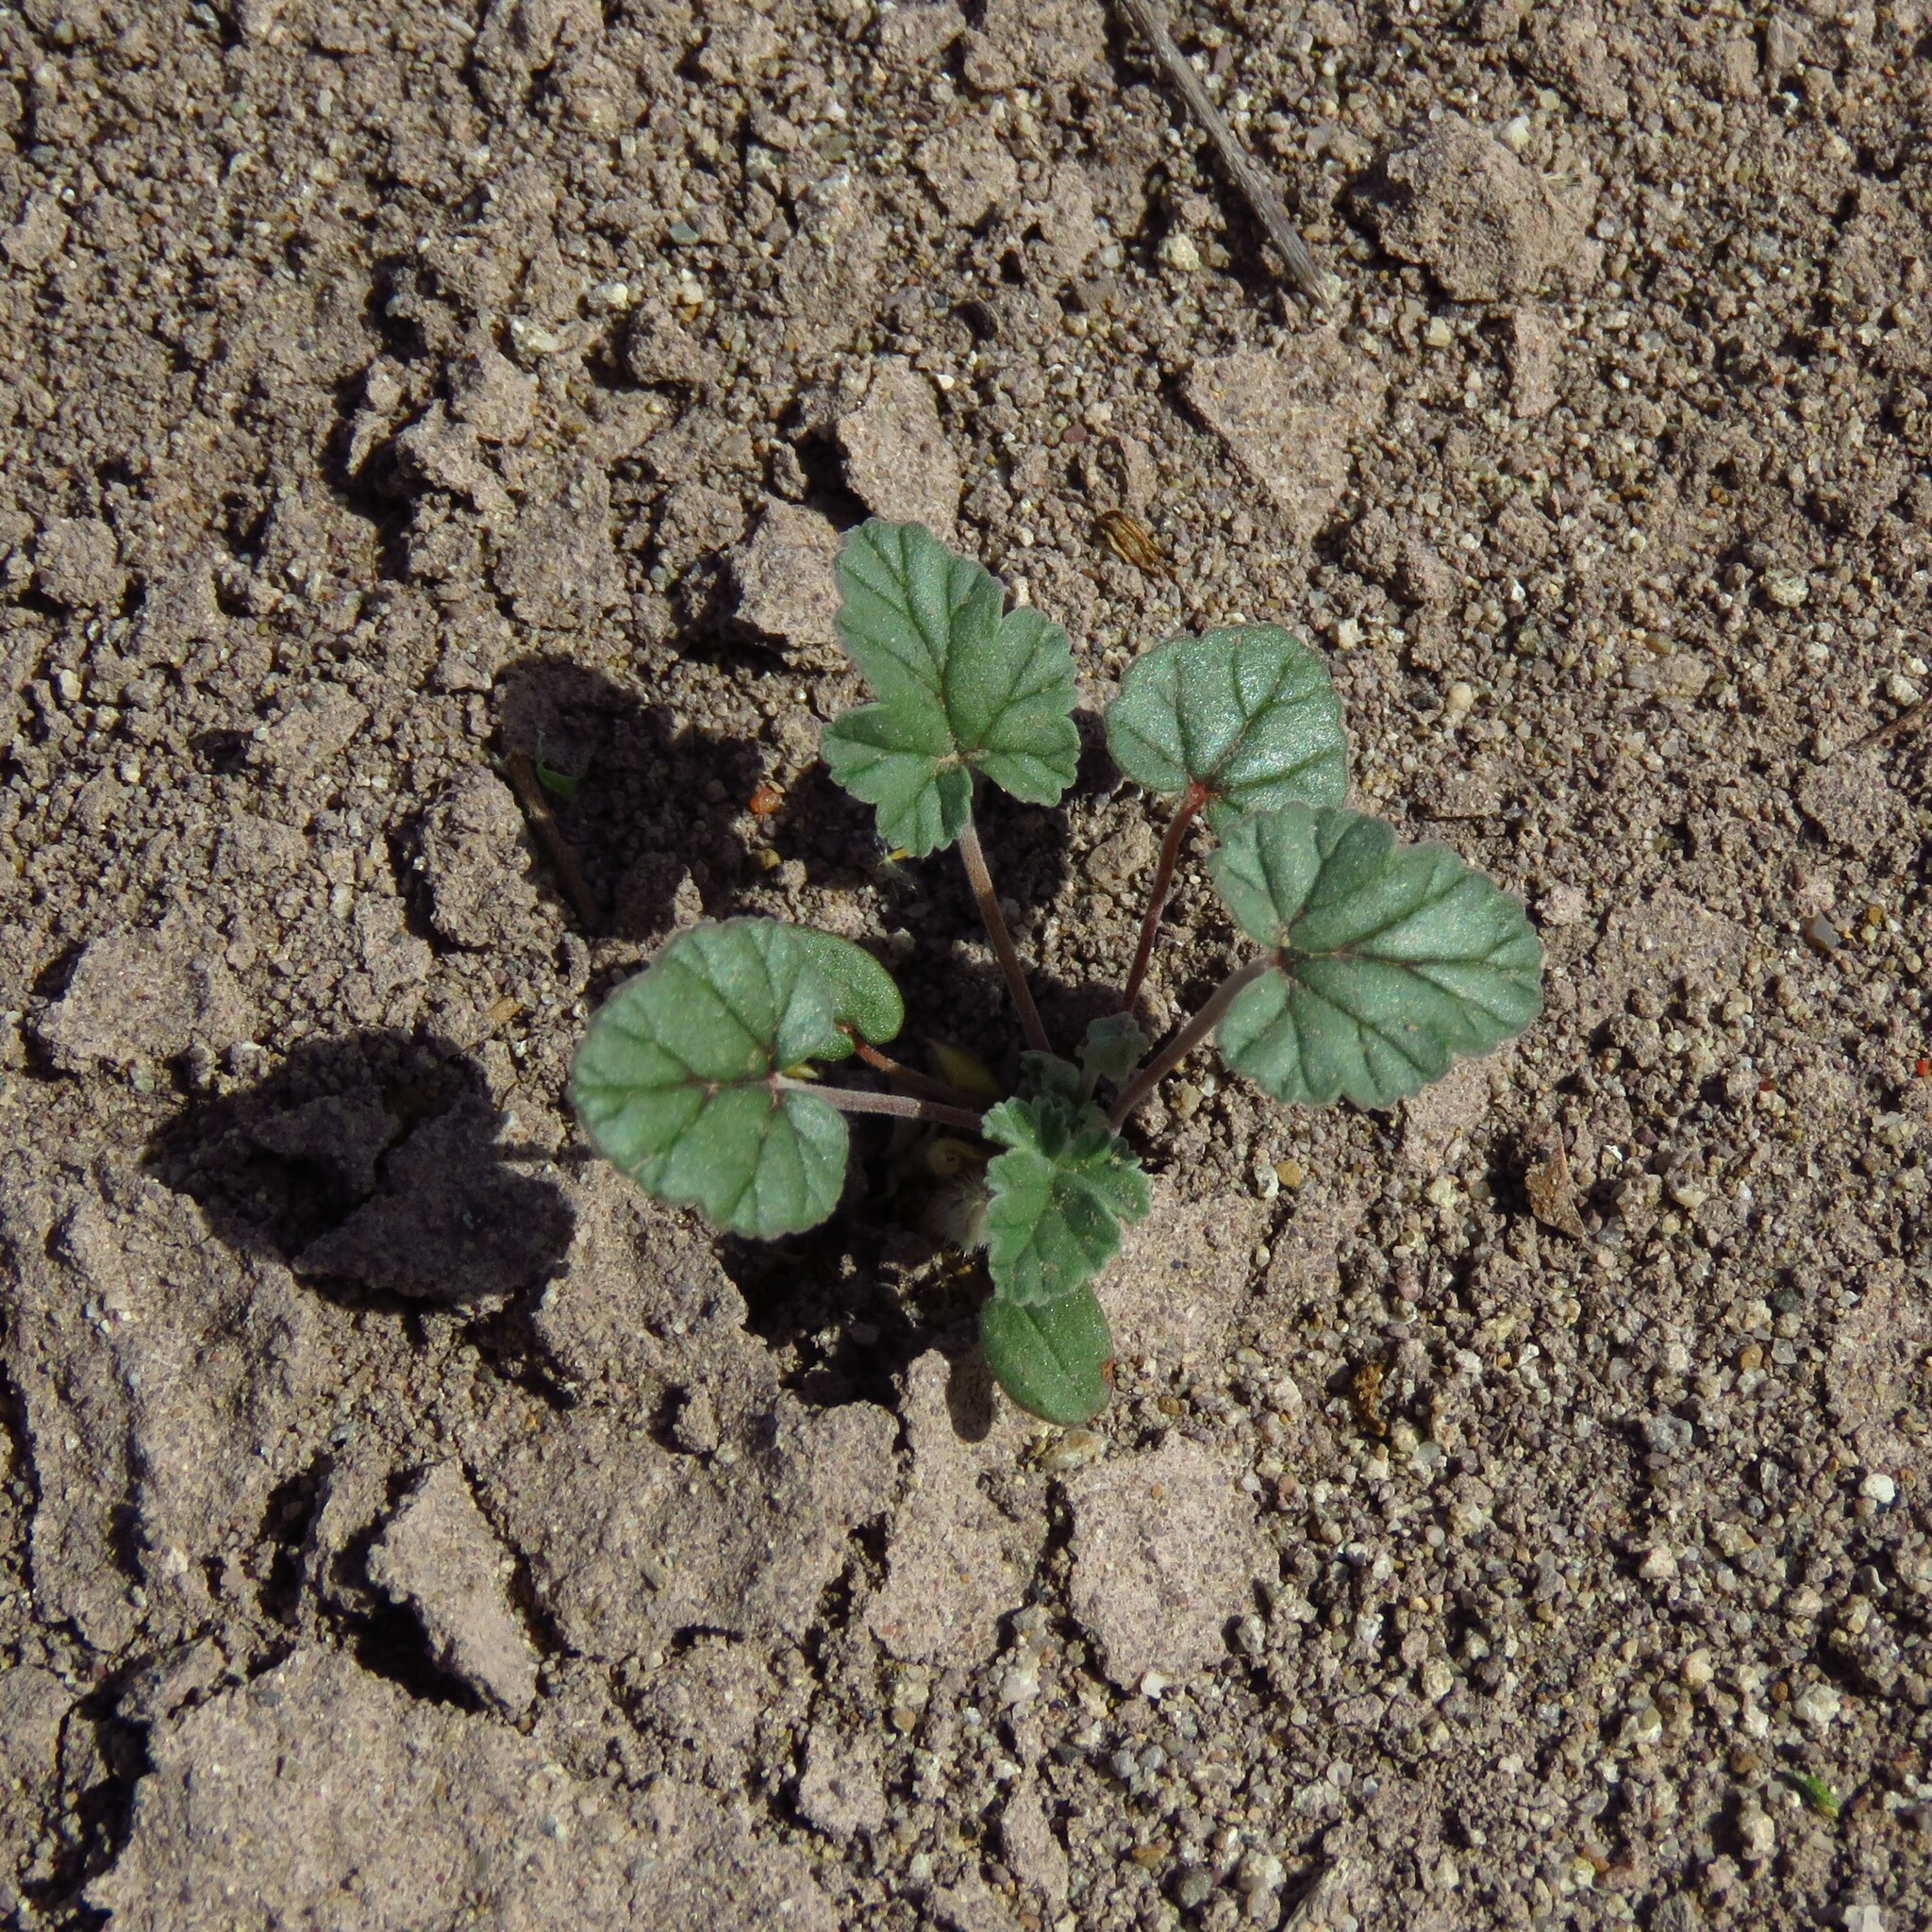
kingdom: Plantae
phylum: Tracheophyta
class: Magnoliopsida
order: Geraniales
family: Geraniaceae
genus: Erodium
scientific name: Erodium texanum
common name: Texas stork's-bill
